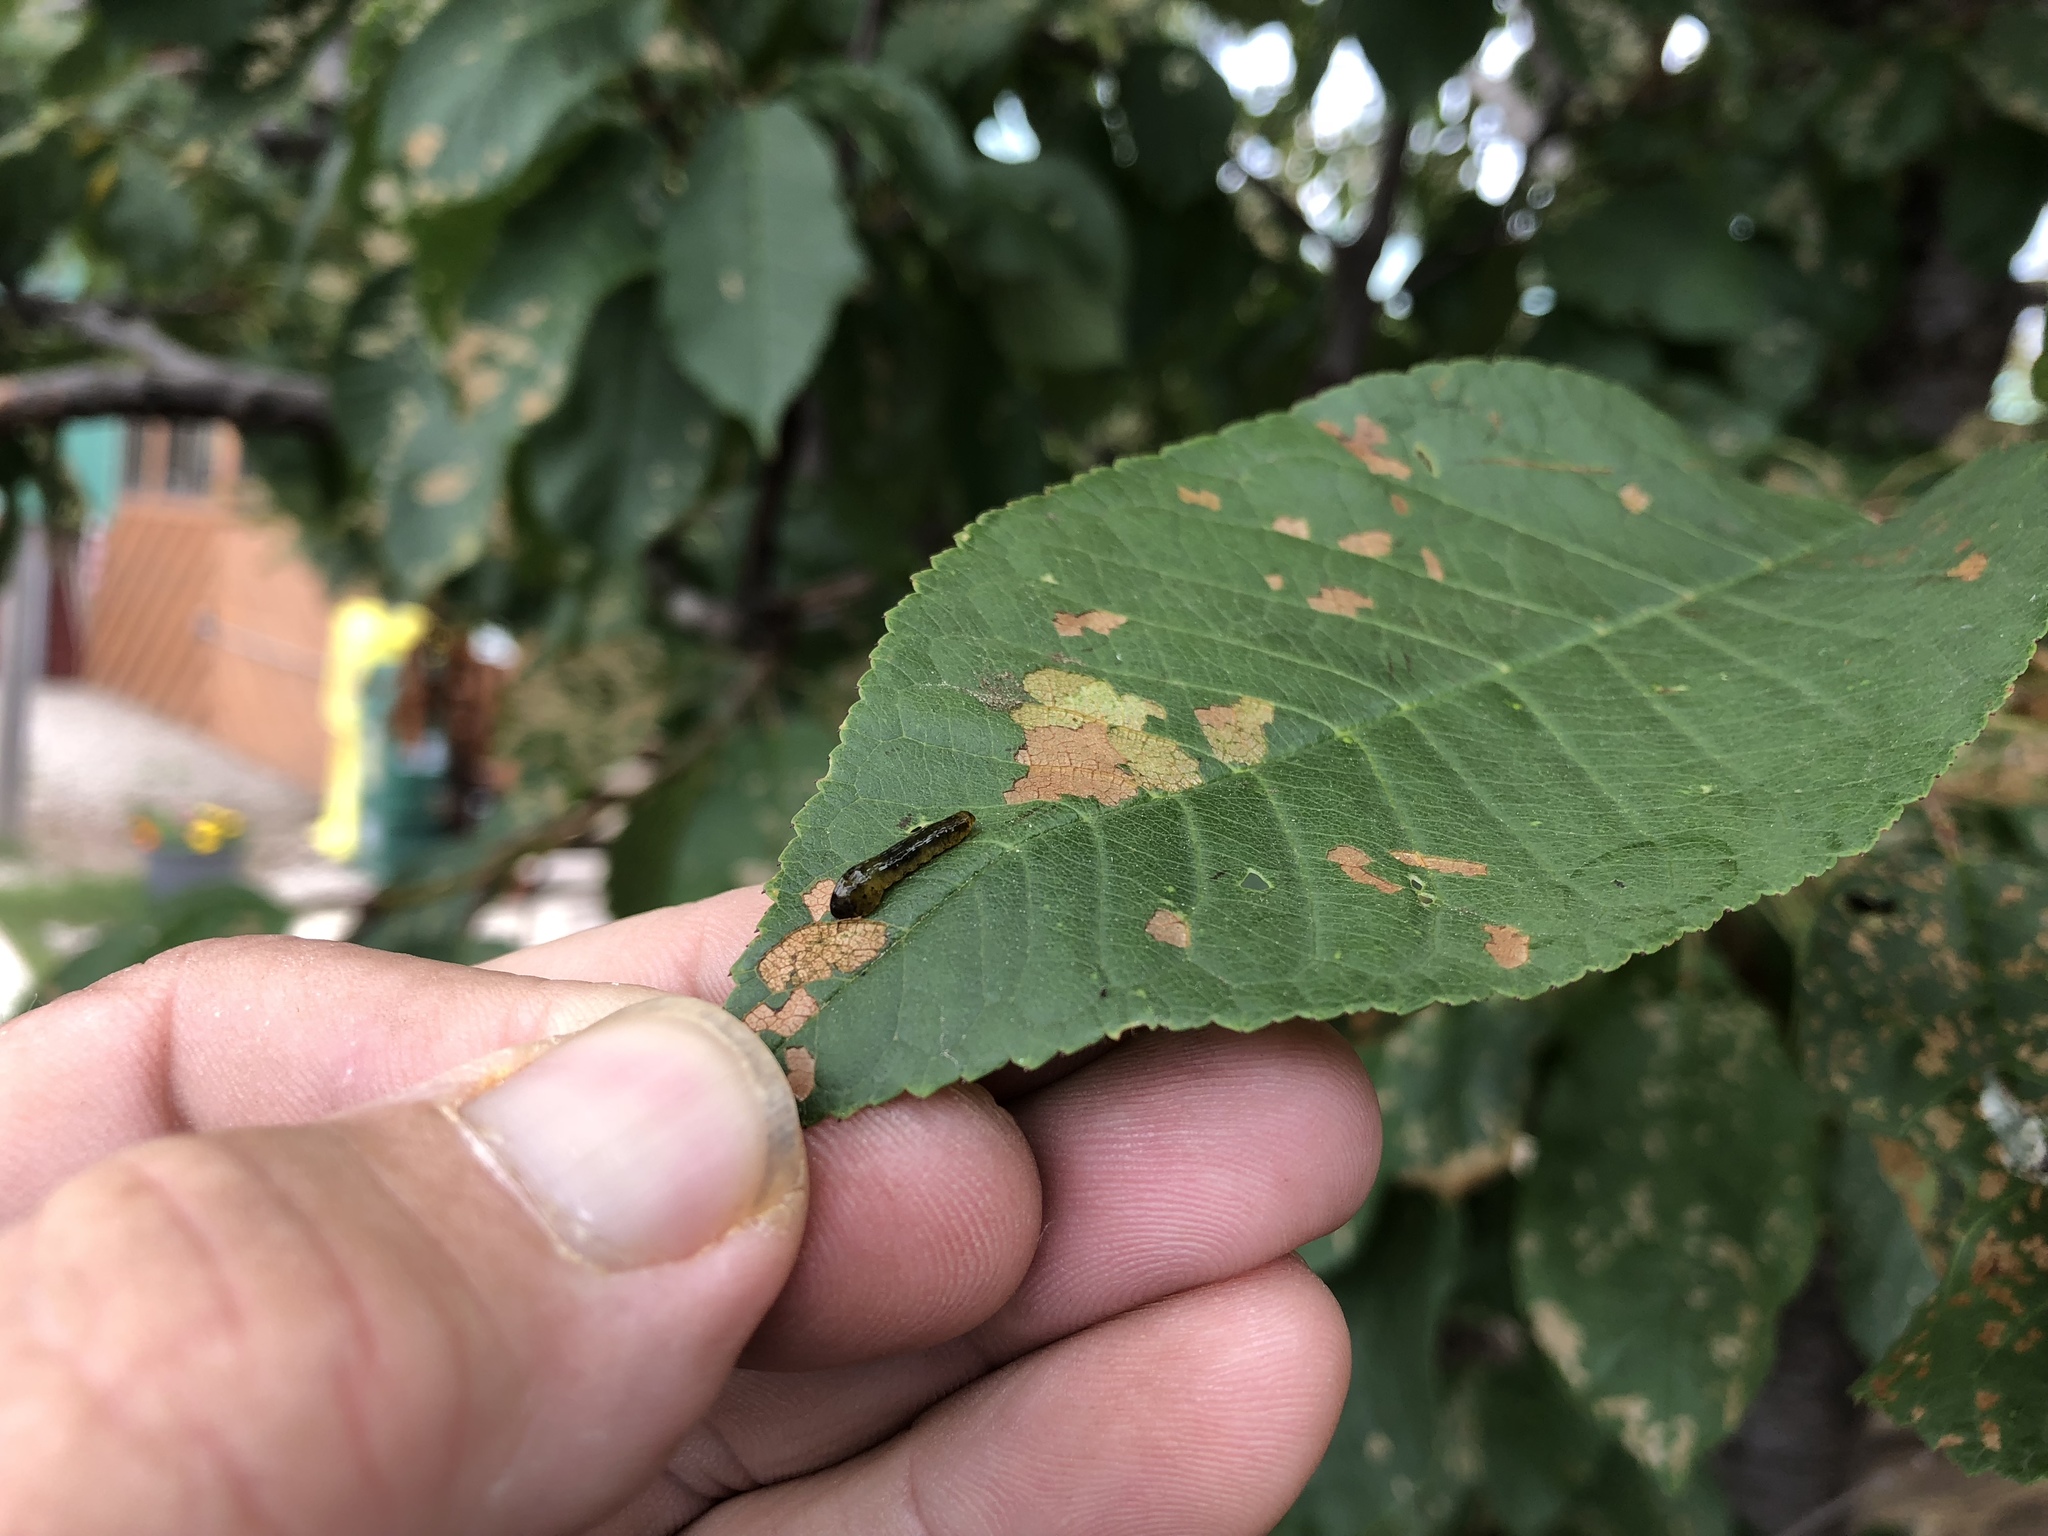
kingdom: Animalia
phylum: Arthropoda
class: Insecta
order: Hymenoptera
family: Tenthredinidae
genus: Caliroa
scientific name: Caliroa cerasi
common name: Pear sawfly
